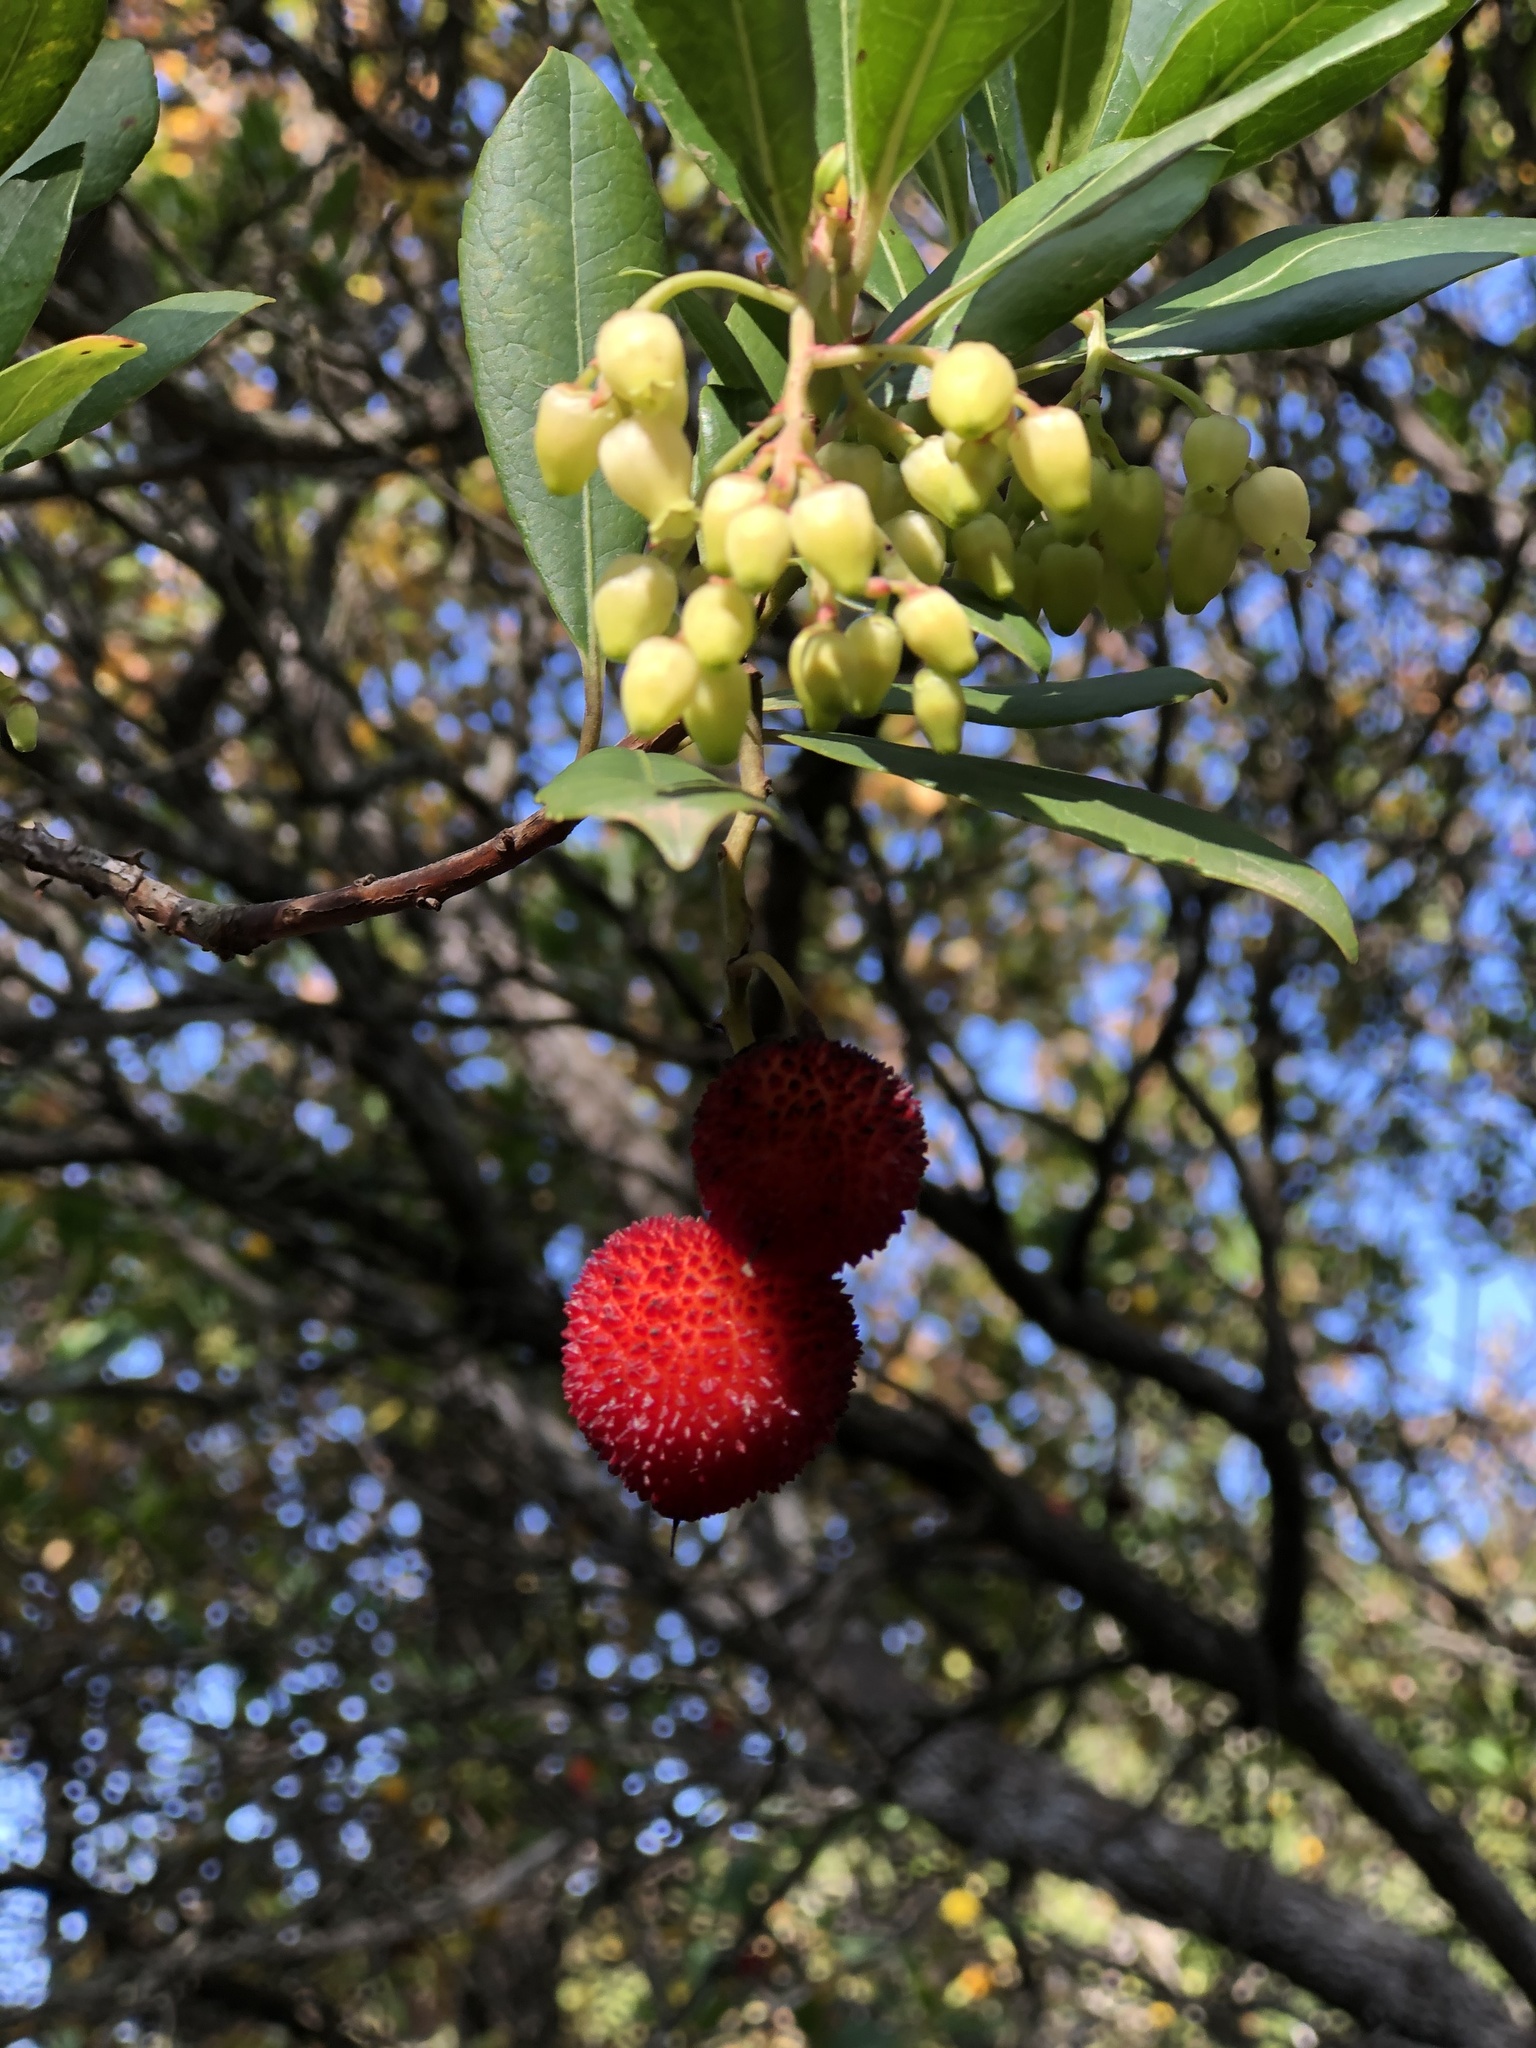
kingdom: Plantae
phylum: Tracheophyta
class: Magnoliopsida
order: Ericales
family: Ericaceae
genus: Arbutus
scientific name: Arbutus unedo
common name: Strawberry-tree
